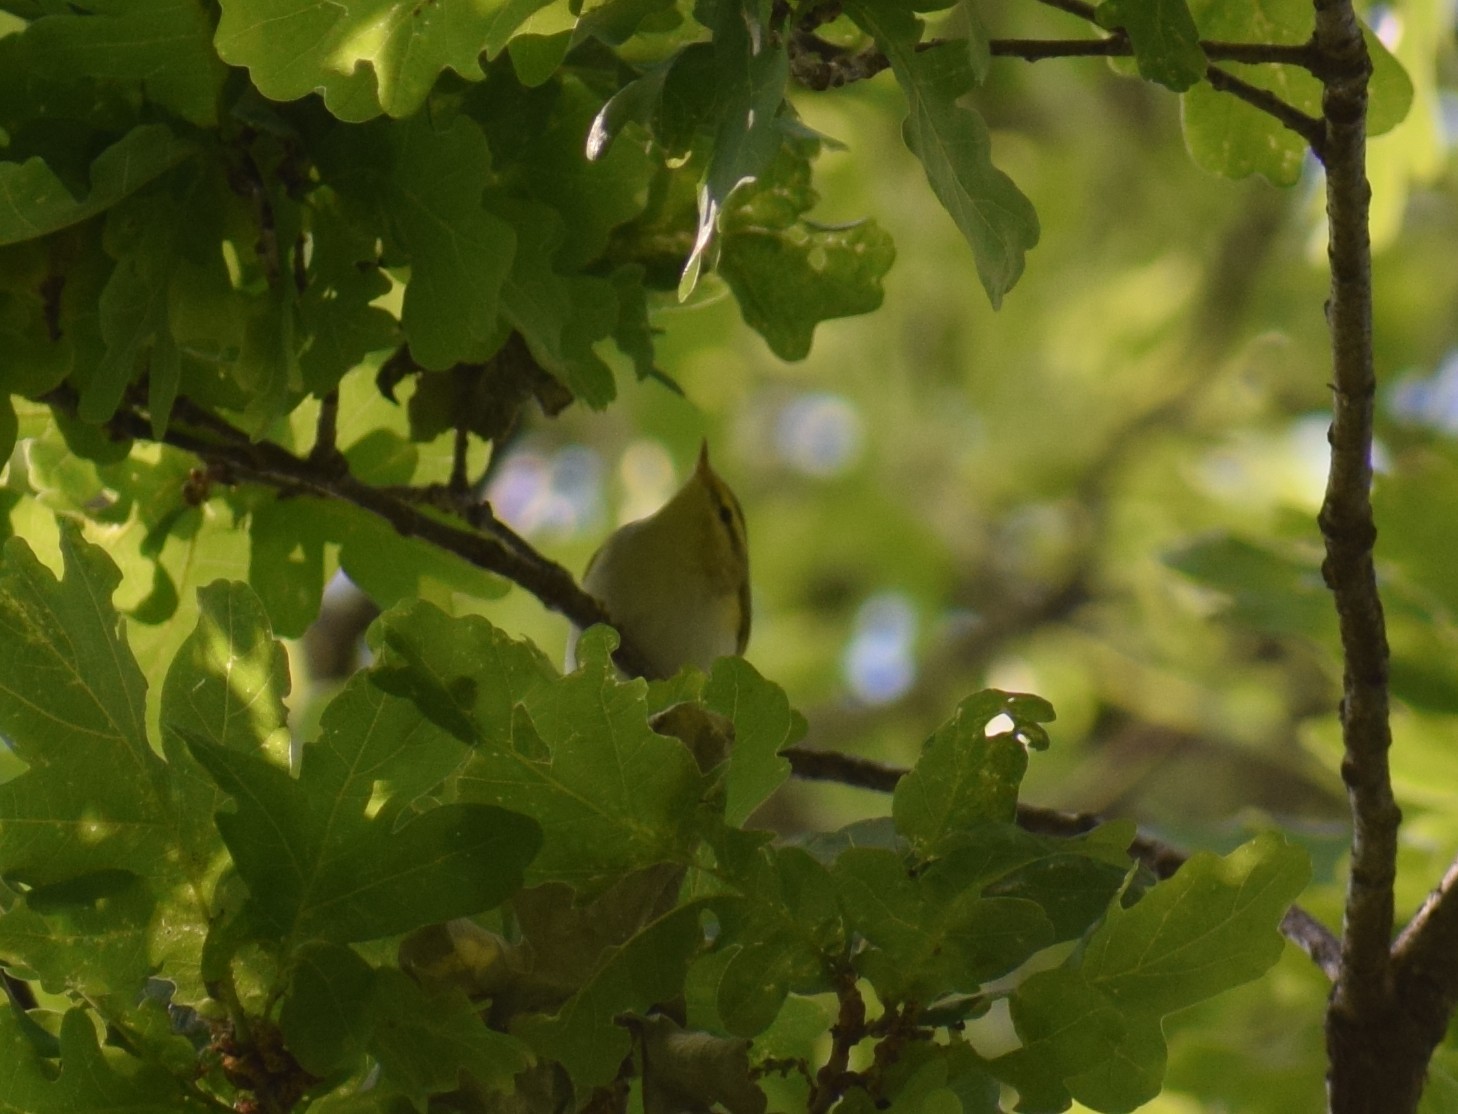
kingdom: Animalia
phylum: Chordata
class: Aves
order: Passeriformes
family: Phylloscopidae
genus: Phylloscopus
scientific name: Phylloscopus sibillatrix
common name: Wood warbler
